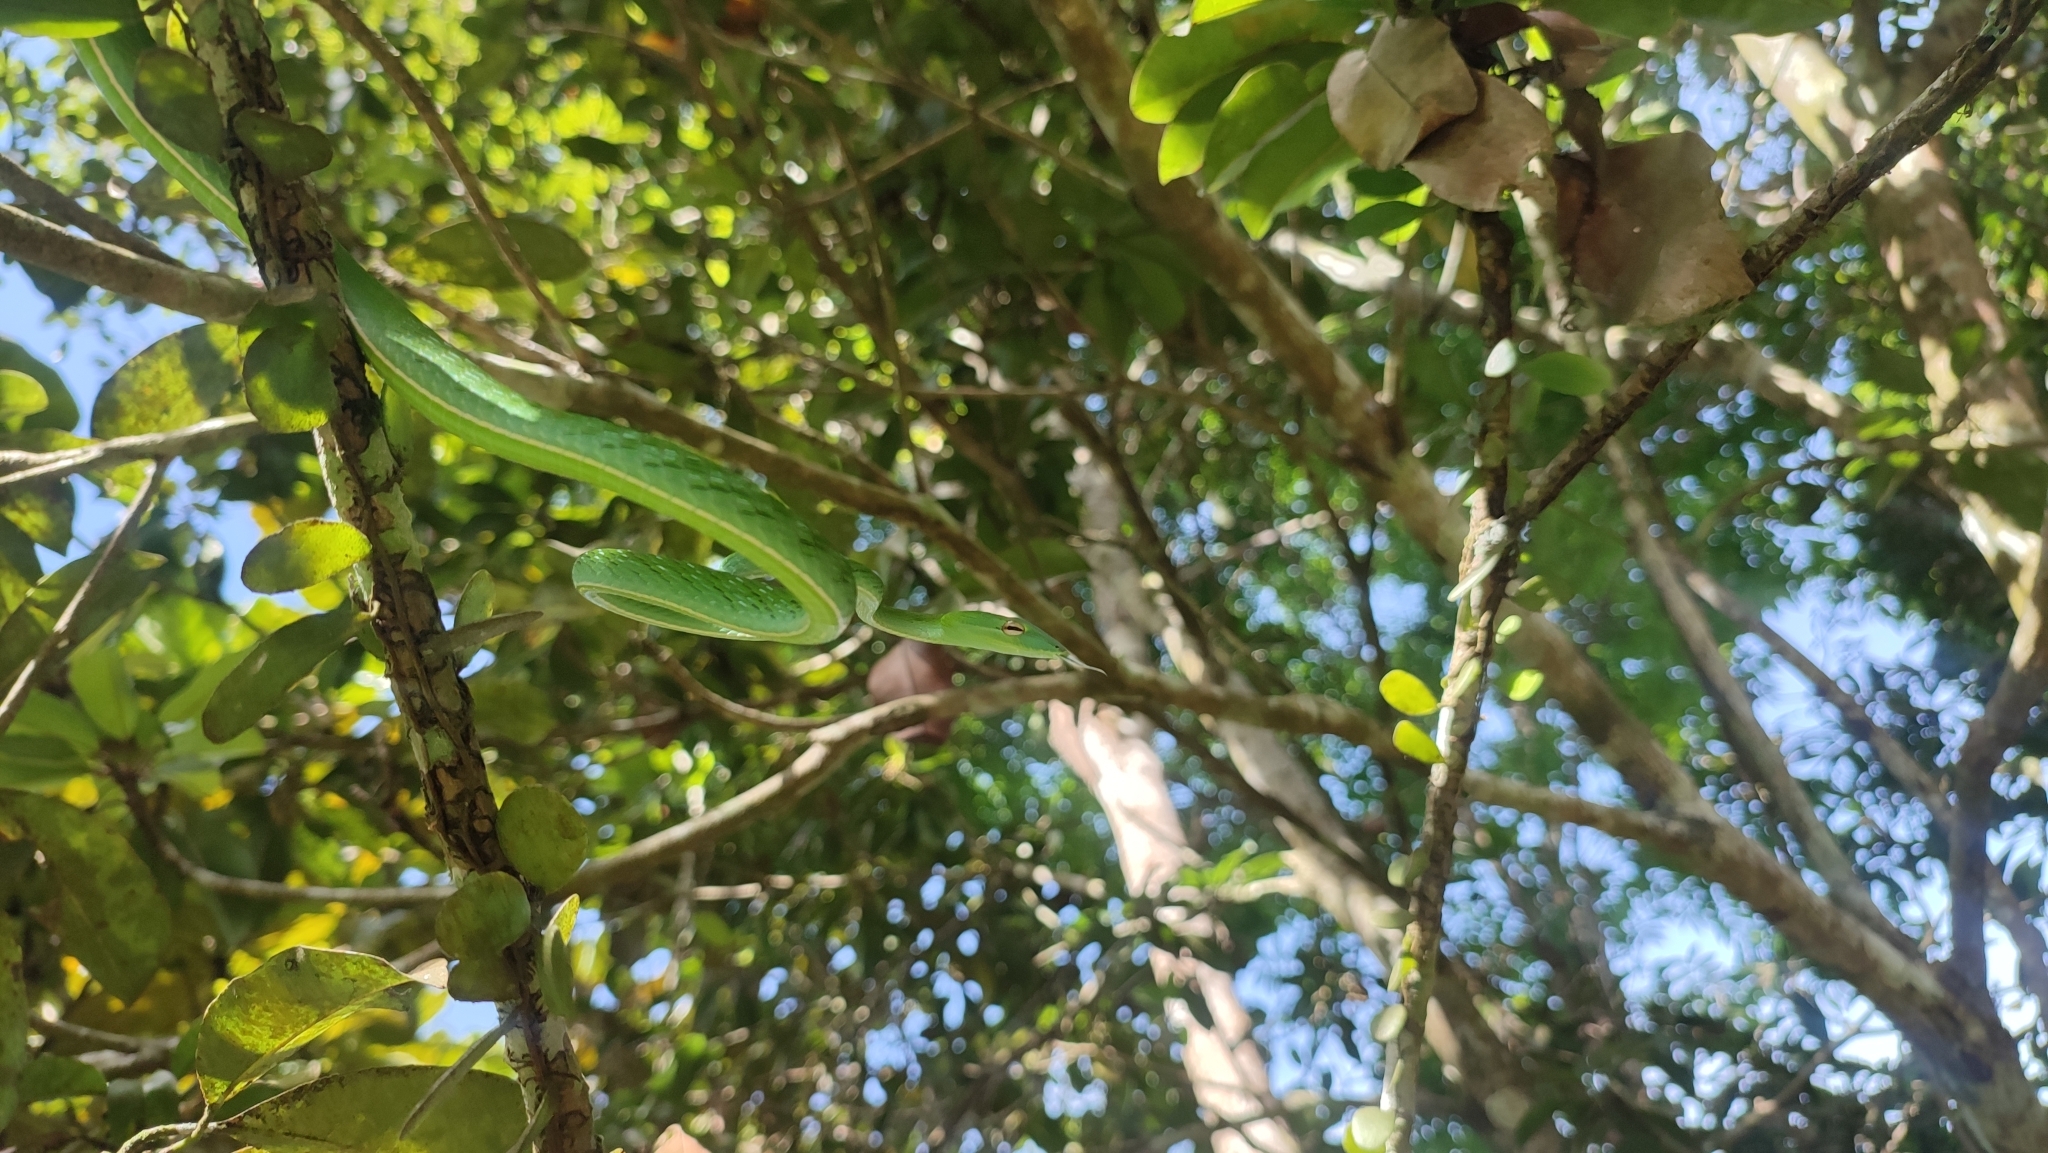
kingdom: Animalia
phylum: Chordata
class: Squamata
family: Colubridae
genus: Ahaetulla
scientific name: Ahaetulla prasina
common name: Oriental whip snake
